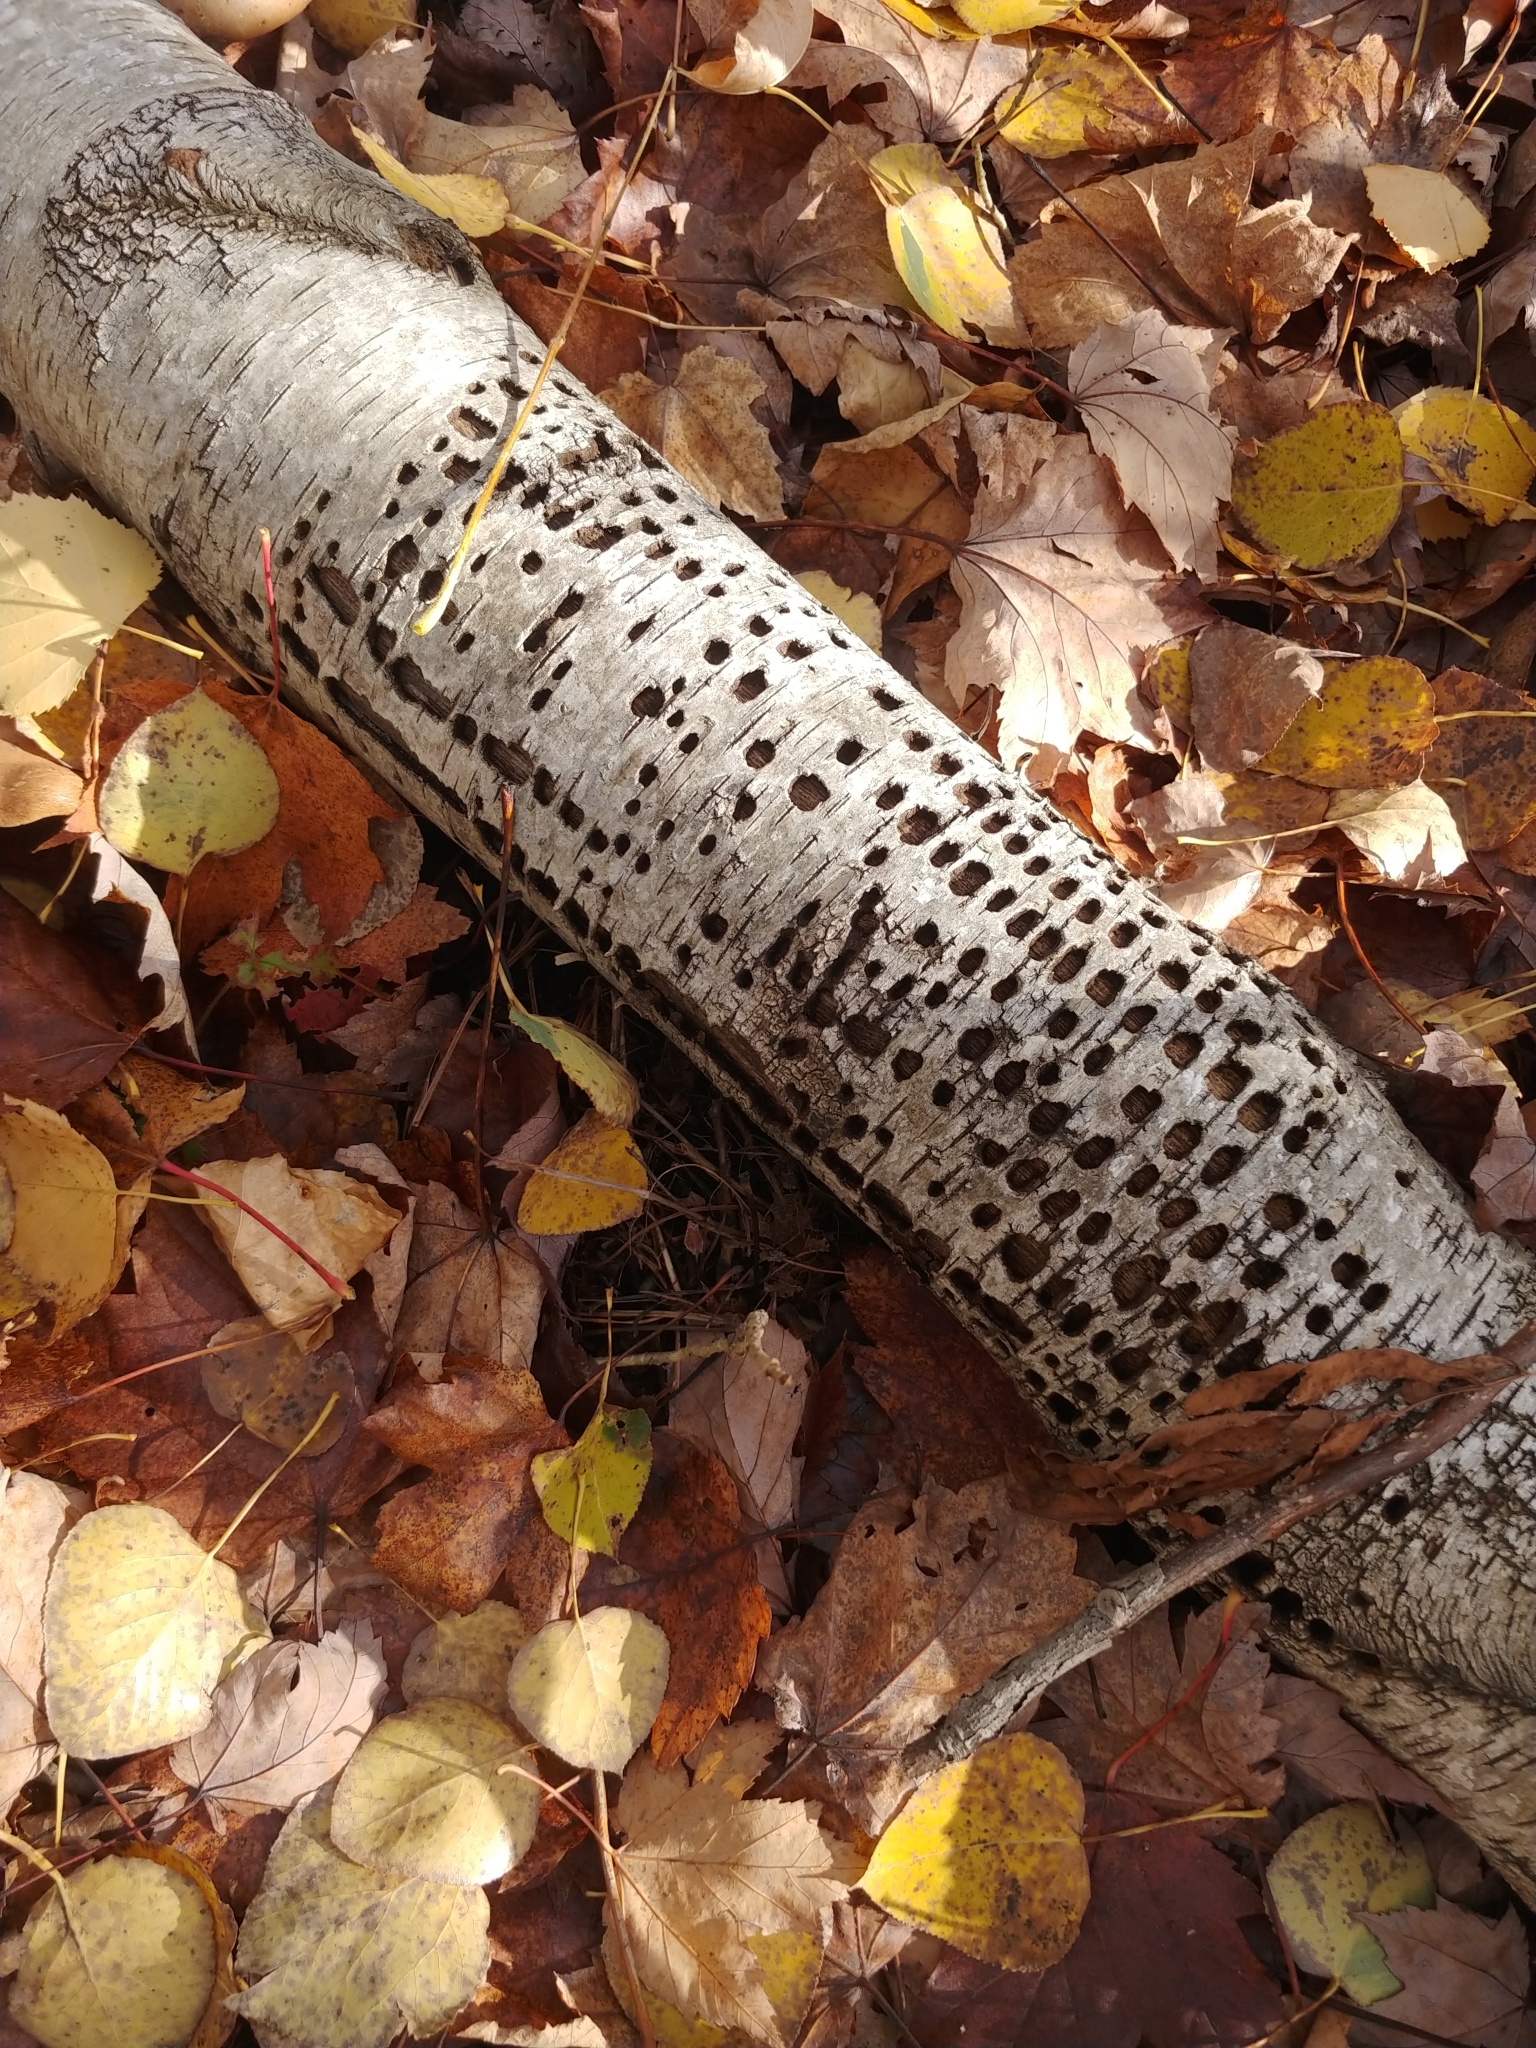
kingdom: Animalia
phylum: Chordata
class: Aves
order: Piciformes
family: Picidae
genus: Sphyrapicus
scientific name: Sphyrapicus varius
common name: Yellow-bellied sapsucker
